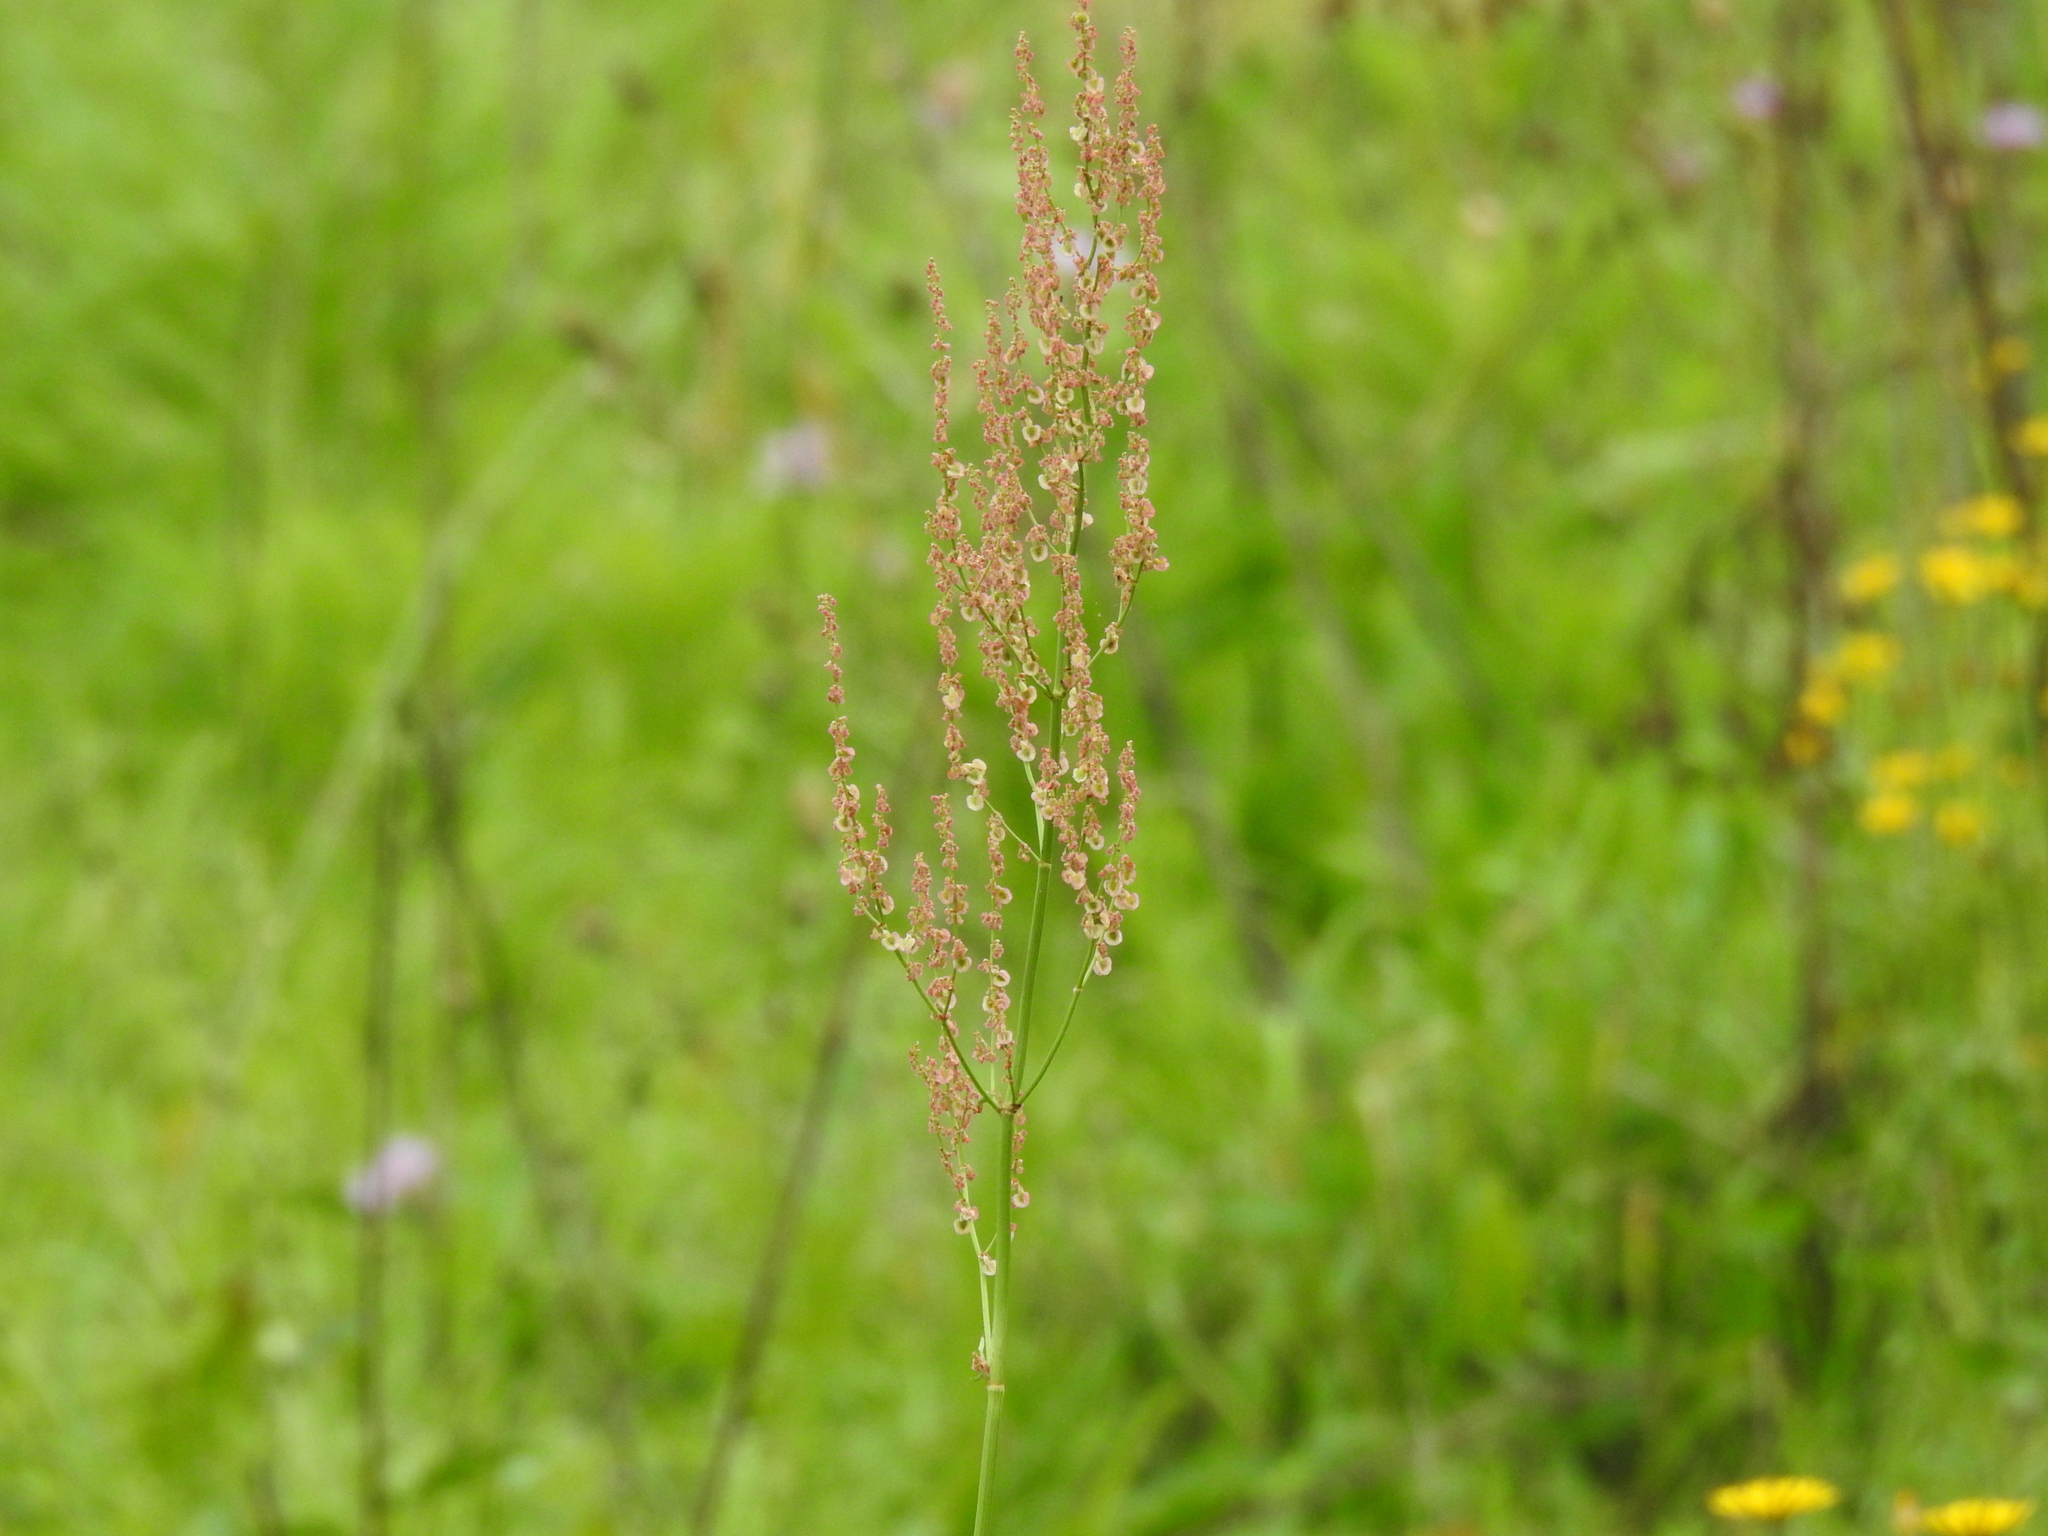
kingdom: Plantae
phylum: Tracheophyta
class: Magnoliopsida
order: Caryophyllales
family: Polygonaceae
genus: Rumex
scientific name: Rumex acetosa
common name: Garden sorrel
